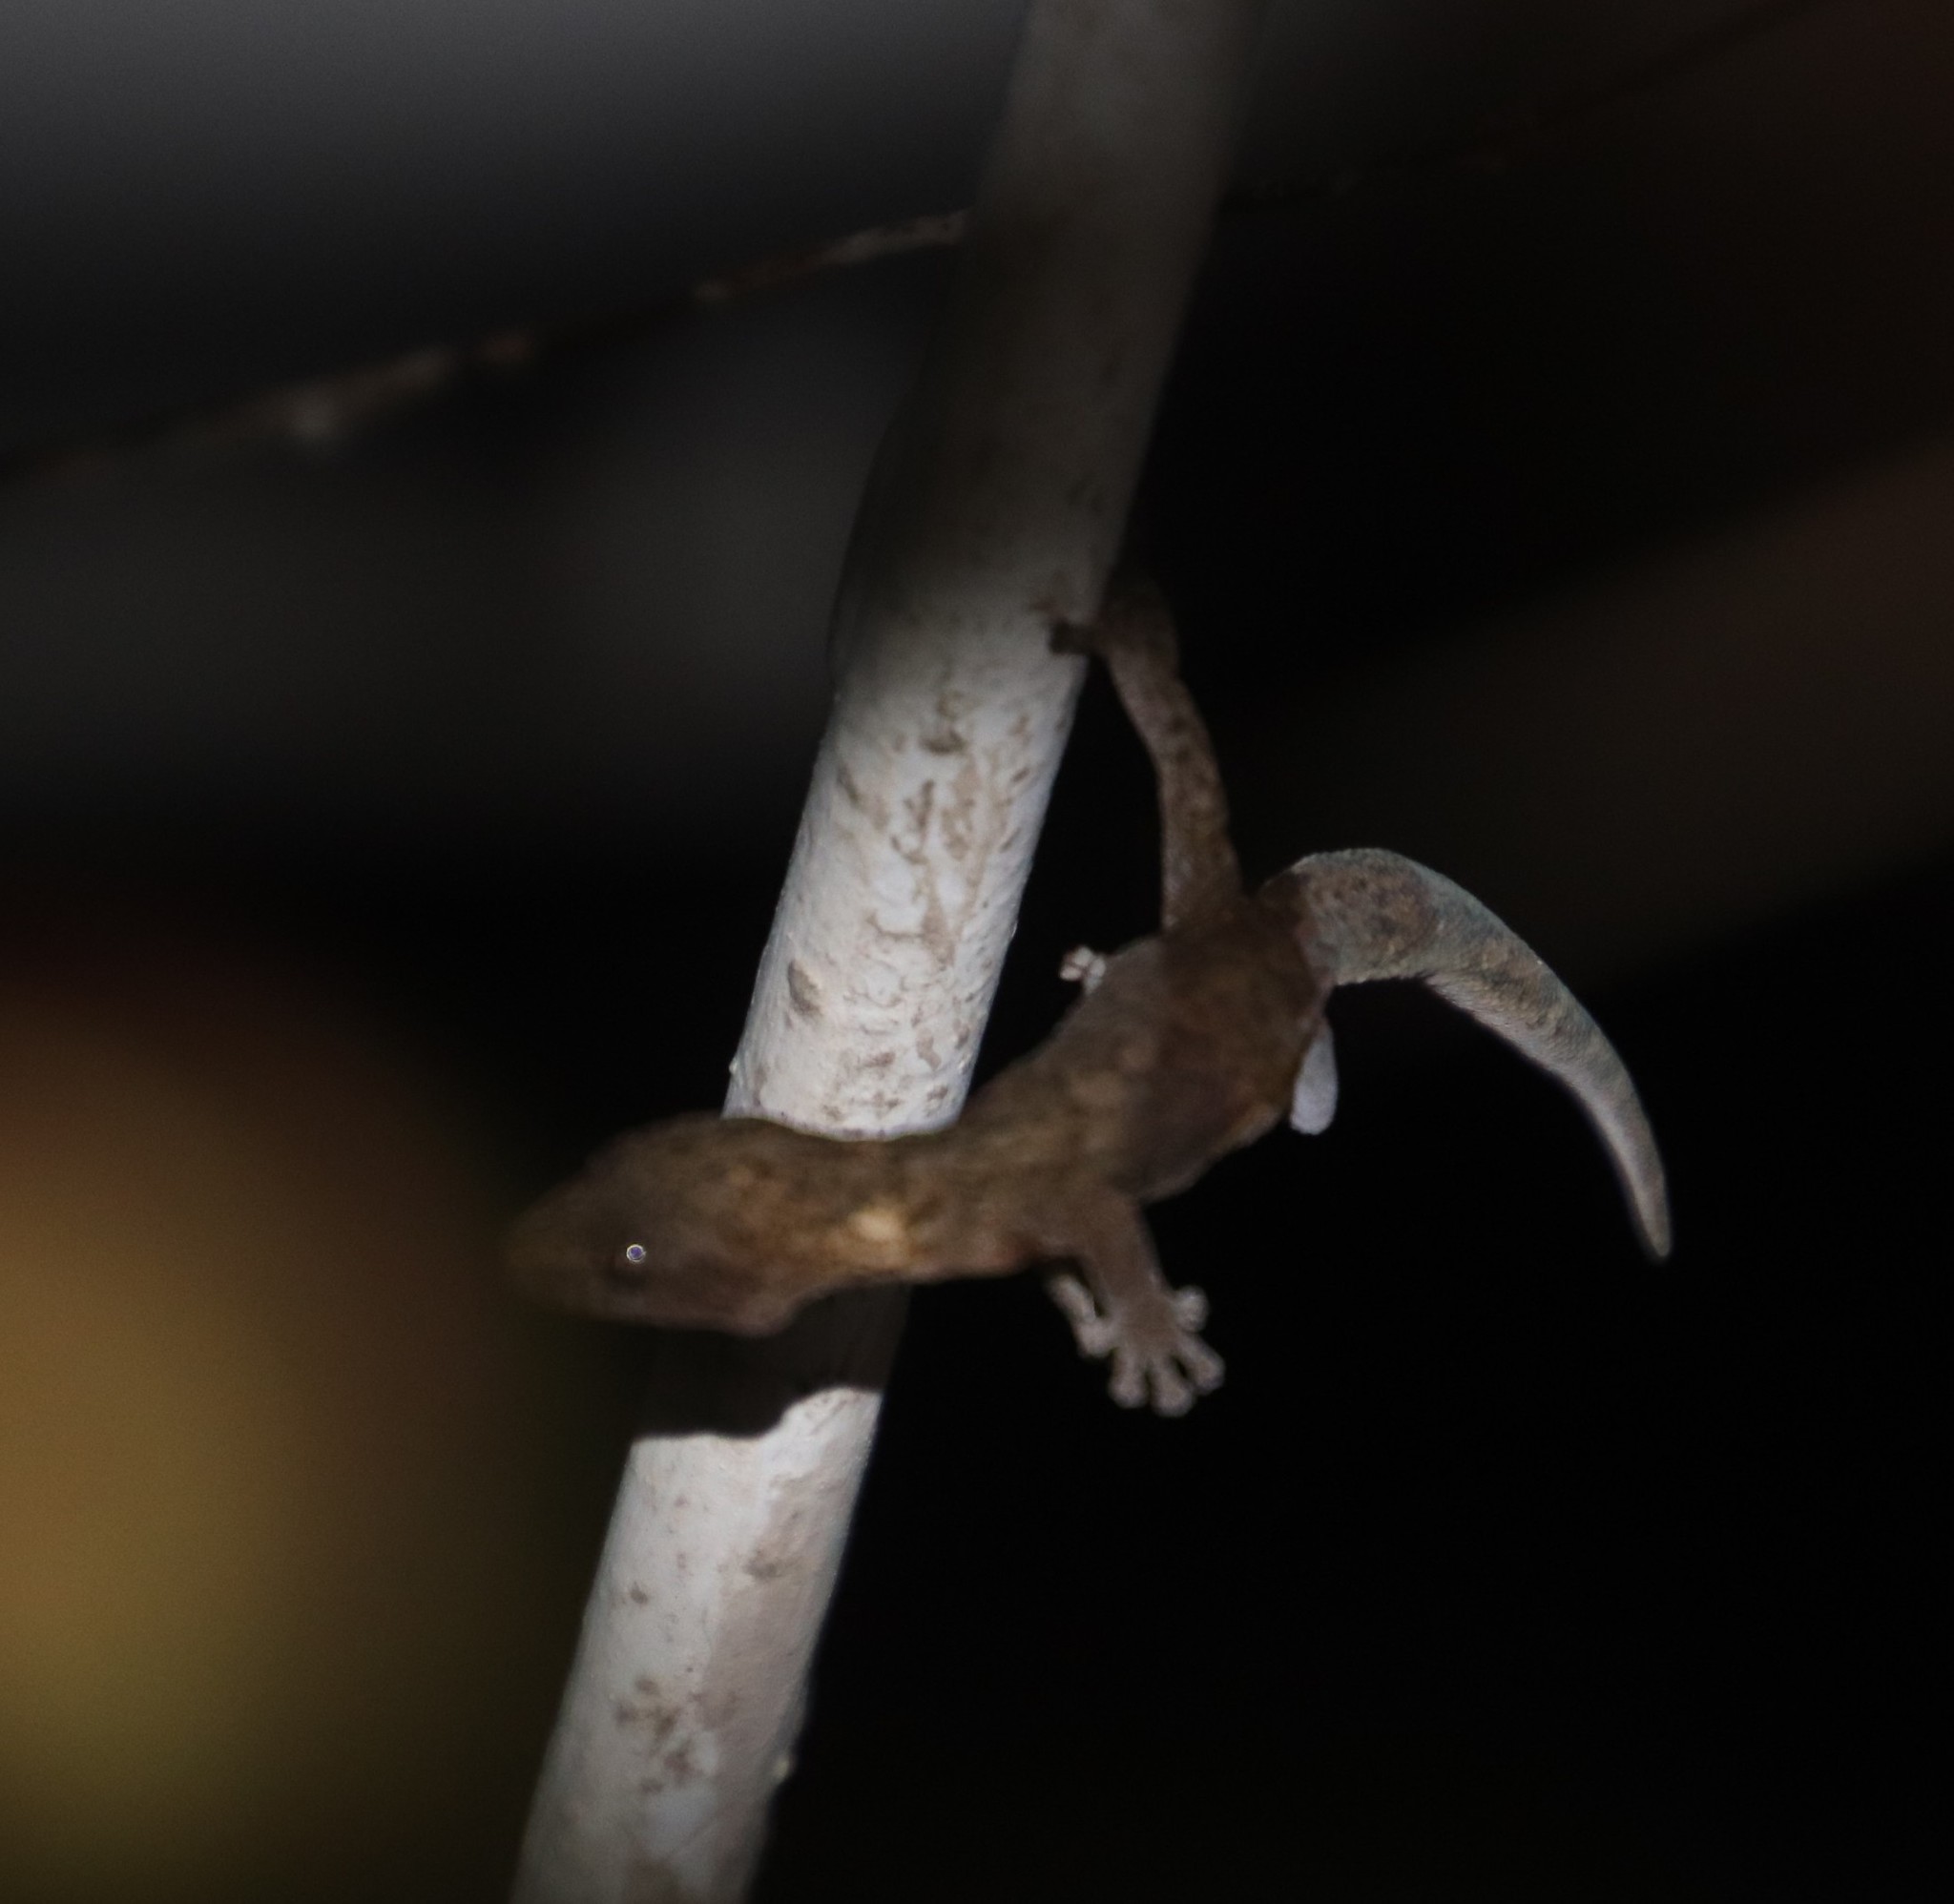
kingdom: Animalia
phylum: Chordata
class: Squamata
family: Gekkonidae
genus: Afrogecko
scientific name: Afrogecko porphyreus
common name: Marbled leaf-toed gecko
